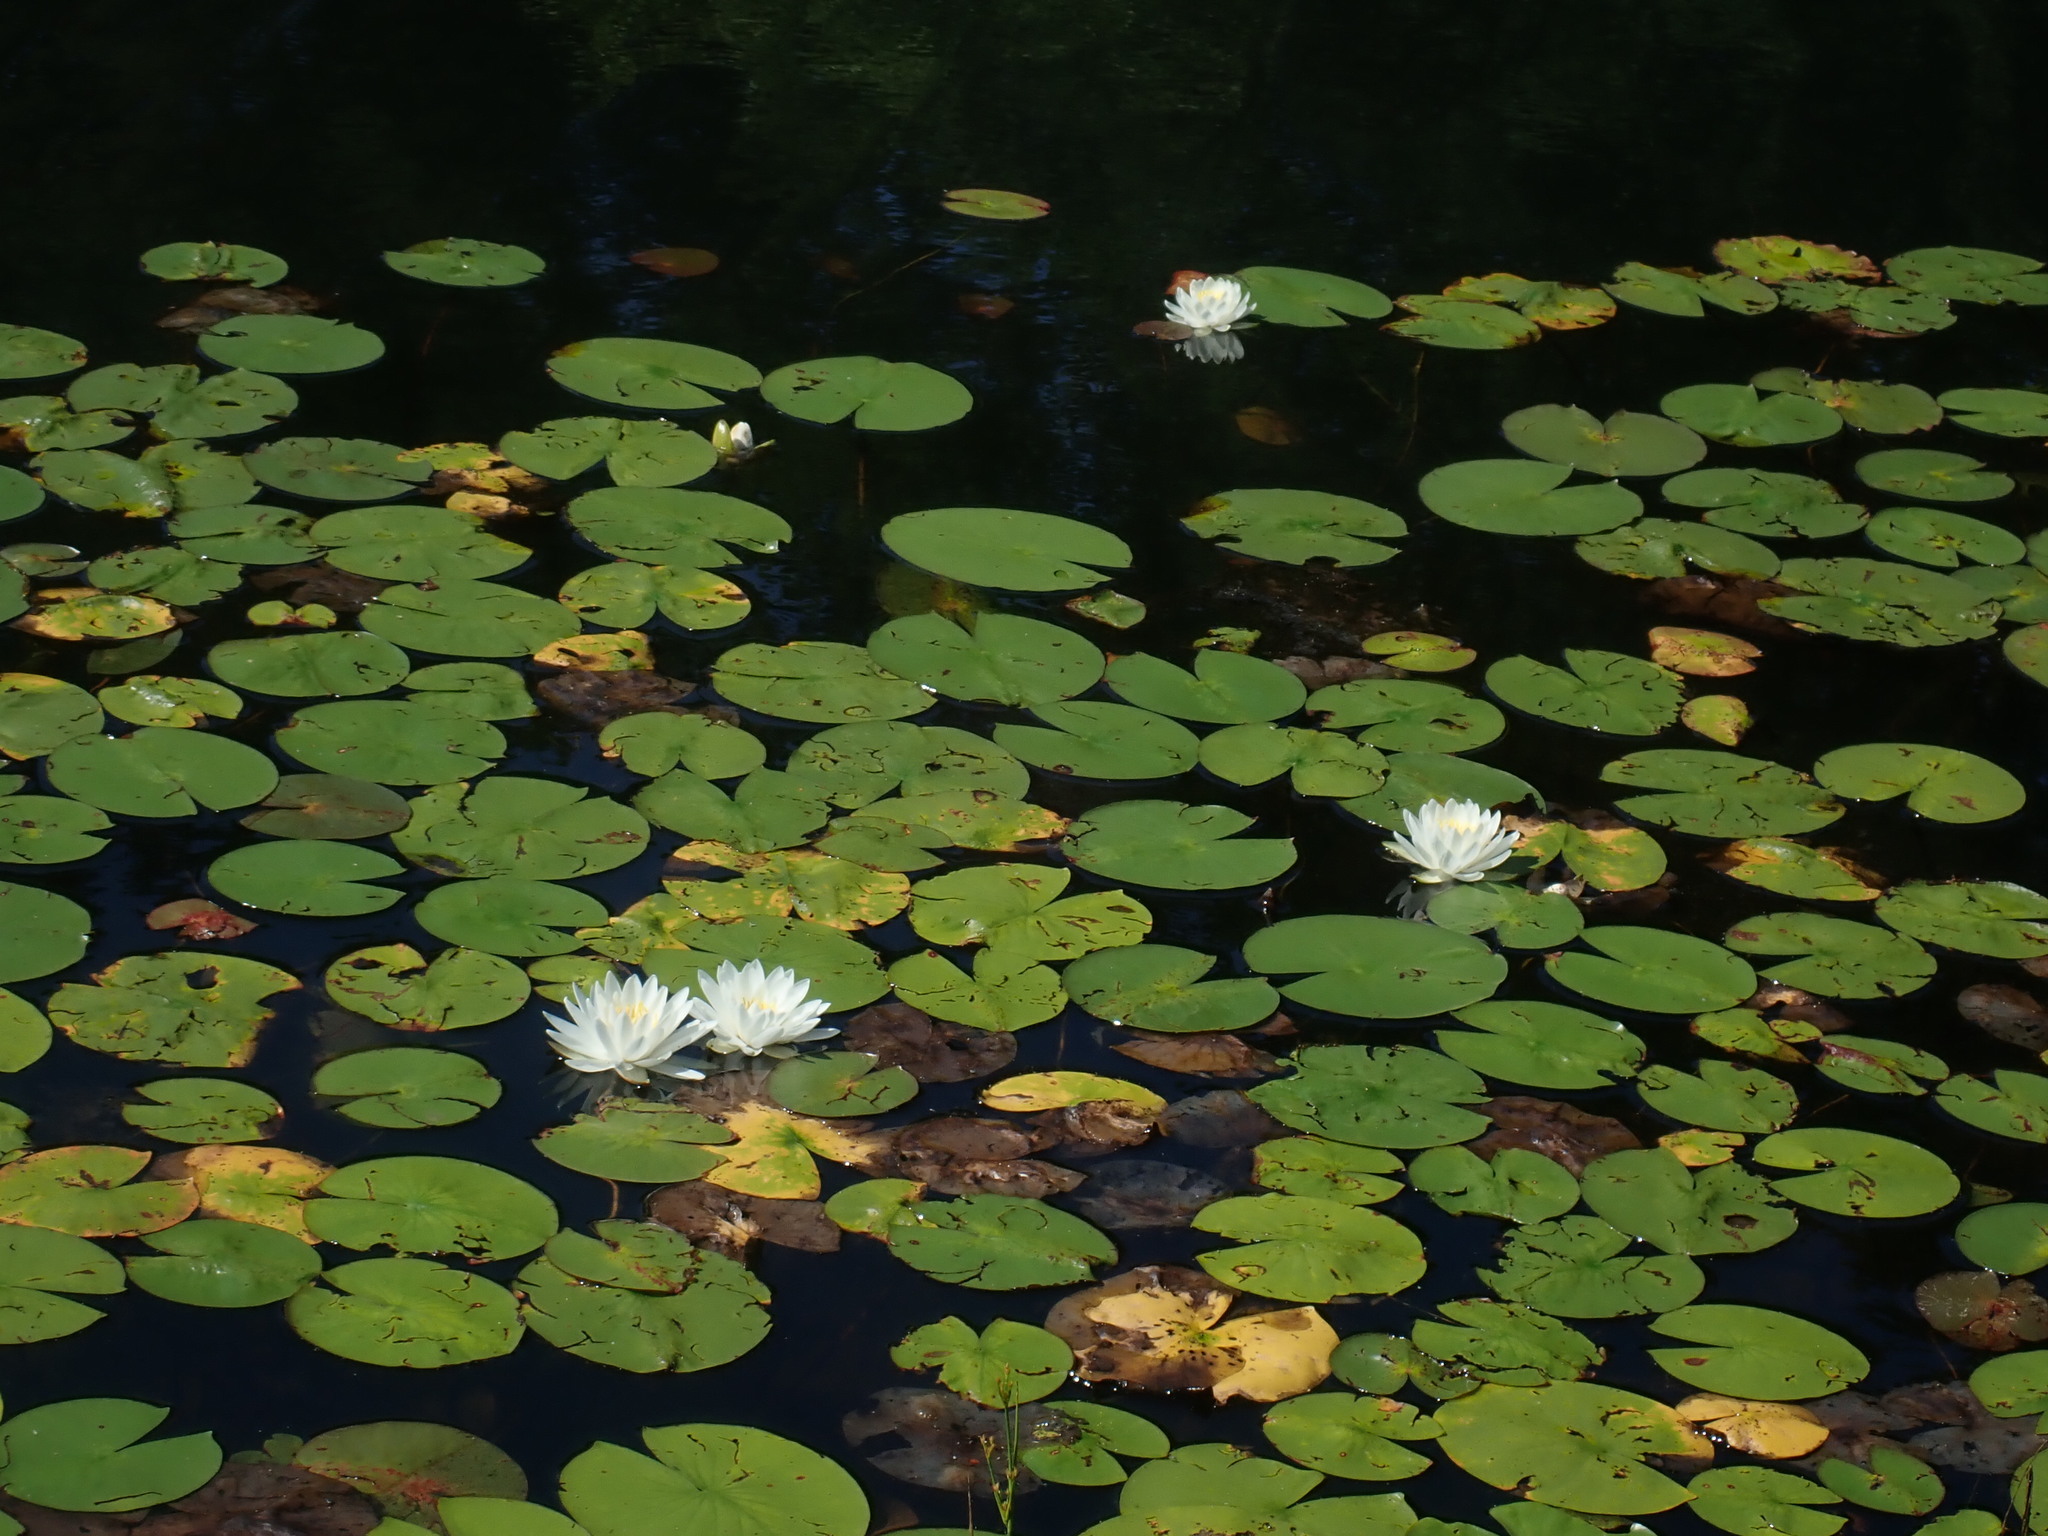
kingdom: Plantae
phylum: Tracheophyta
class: Magnoliopsida
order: Nymphaeales
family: Nymphaeaceae
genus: Nymphaea
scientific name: Nymphaea odorata
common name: Fragrant water-lily
